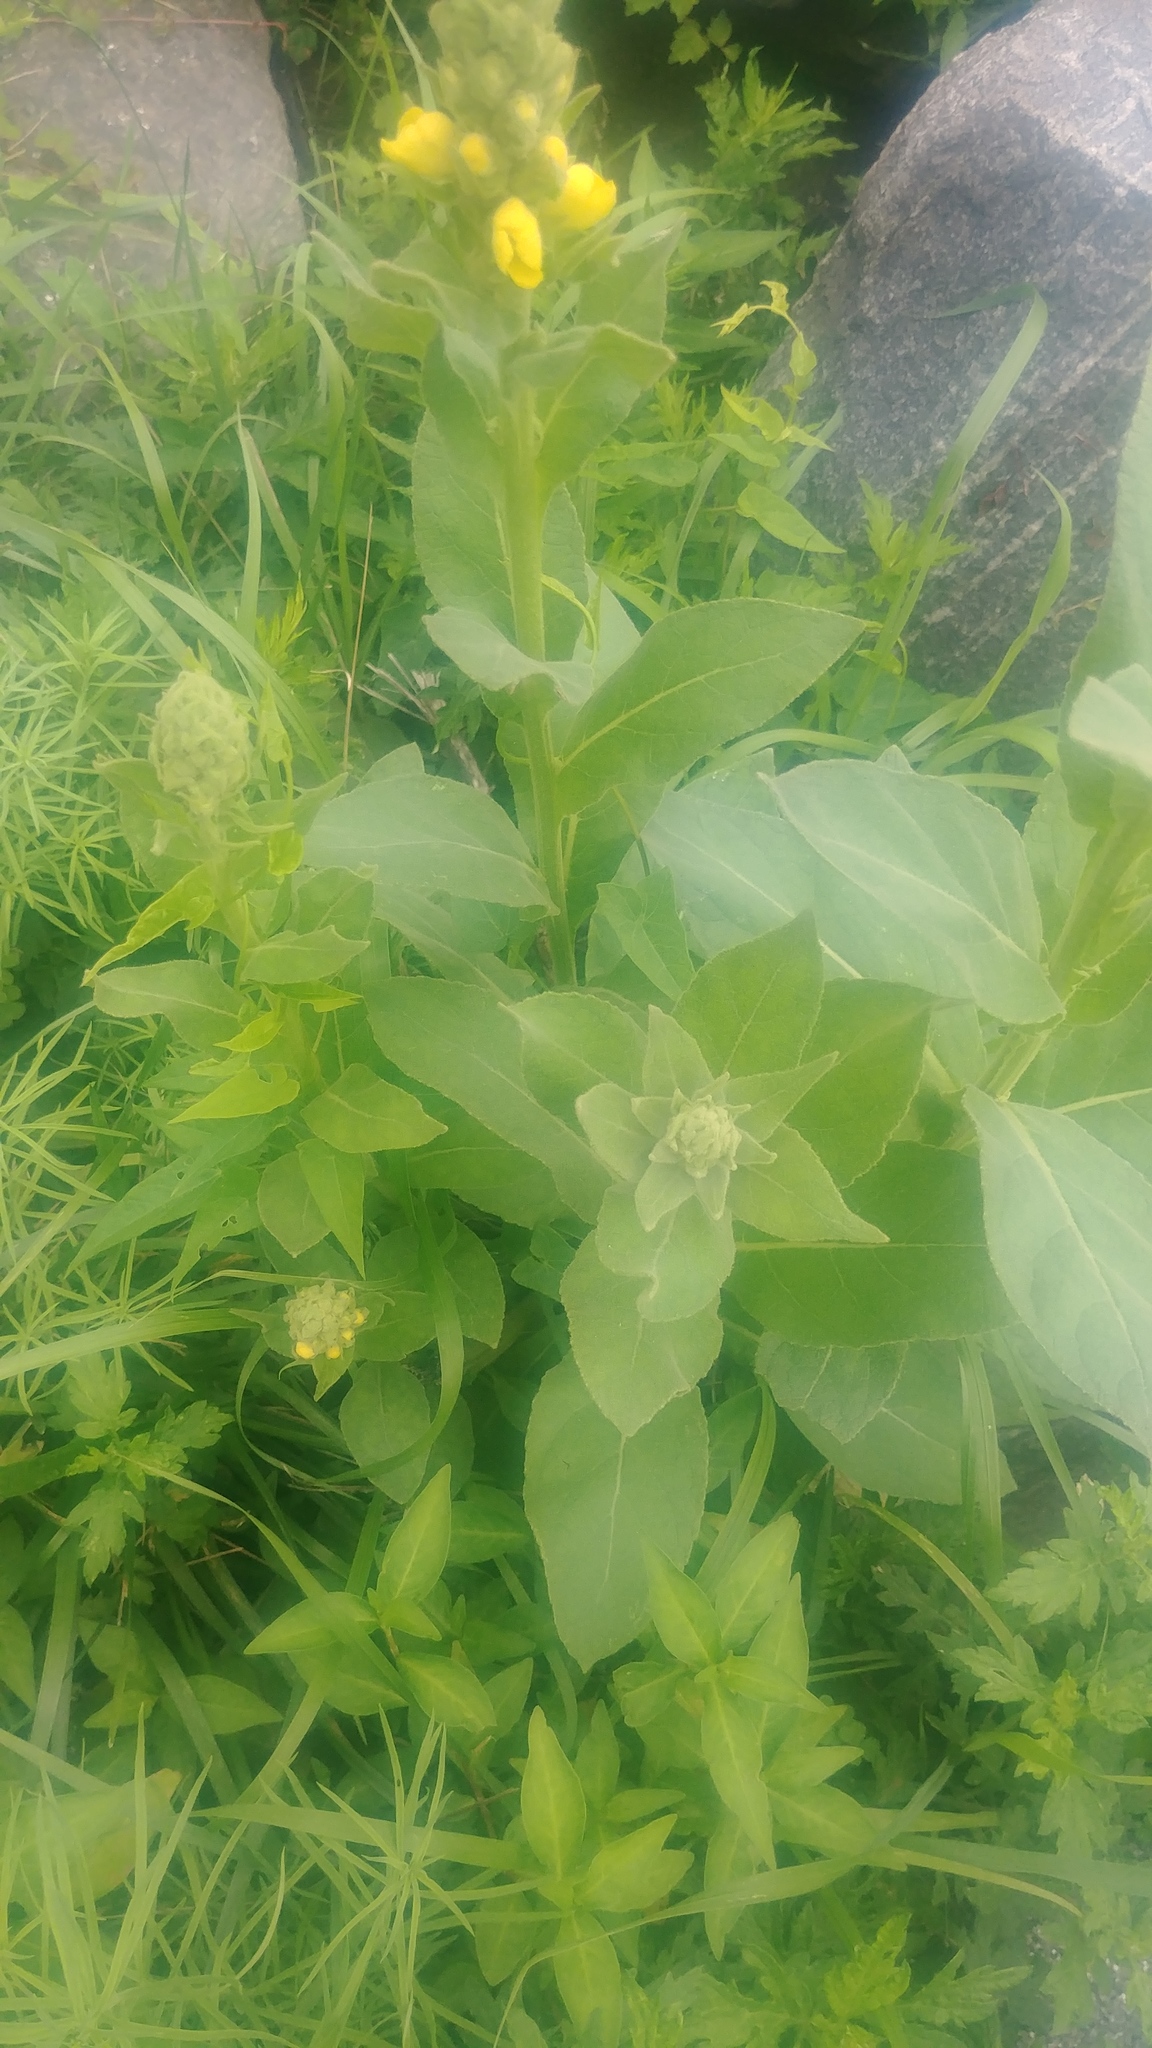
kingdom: Plantae
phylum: Tracheophyta
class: Magnoliopsida
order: Lamiales
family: Scrophulariaceae
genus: Verbascum
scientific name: Verbascum thapsus
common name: Common mullein
